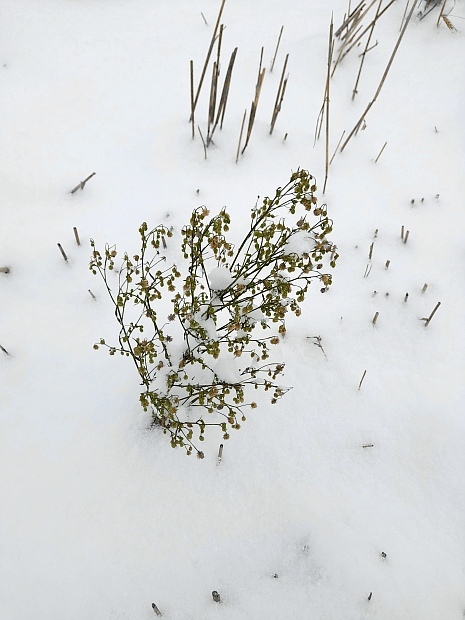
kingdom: Plantae
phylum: Tracheophyta
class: Magnoliopsida
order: Asterales
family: Asteraceae
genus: Erigeron
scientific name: Erigeron canadensis
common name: Canadian fleabane
